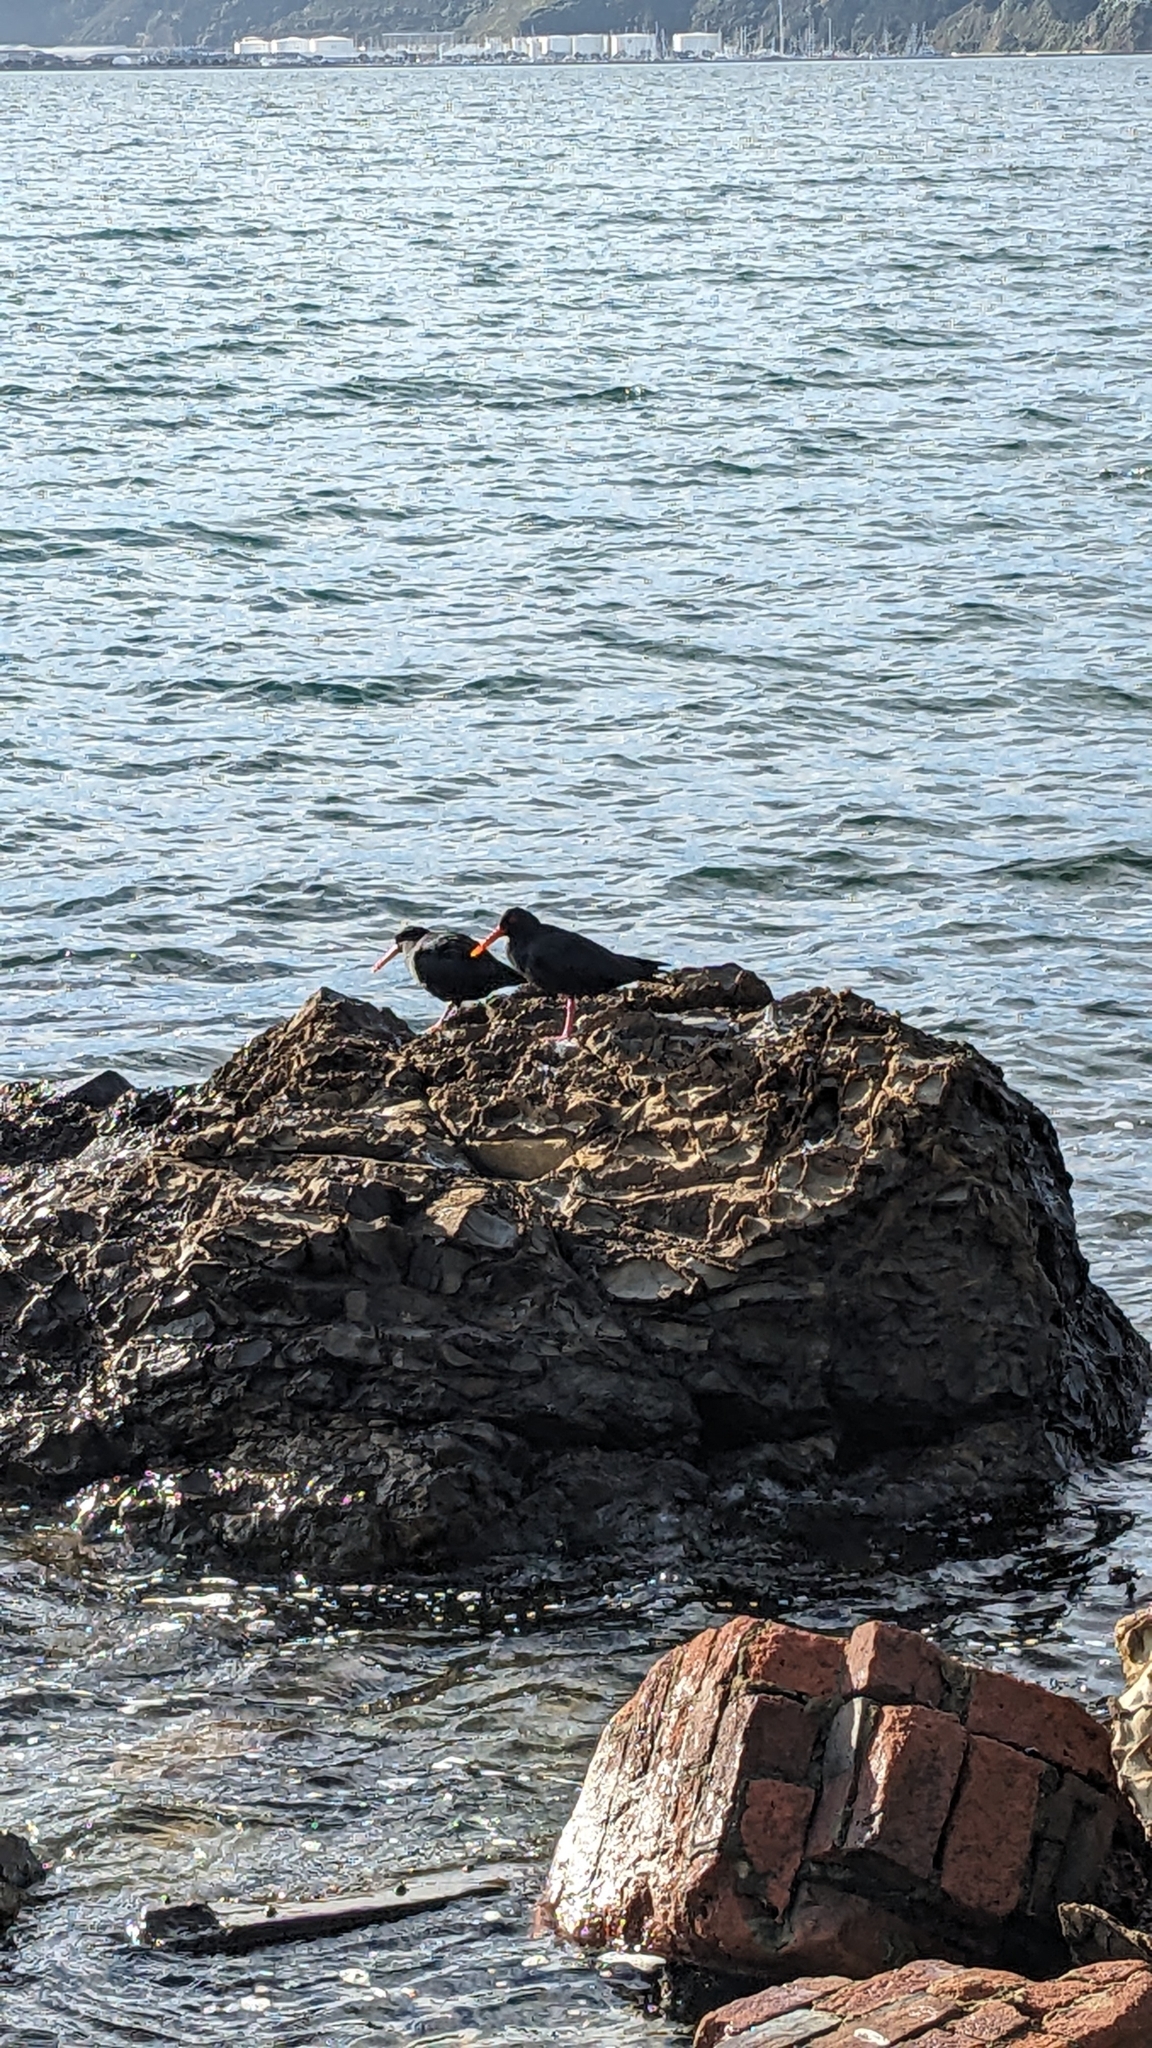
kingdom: Animalia
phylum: Chordata
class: Aves
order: Charadriiformes
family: Haematopodidae
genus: Haematopus
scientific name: Haematopus unicolor
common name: Variable oystercatcher
